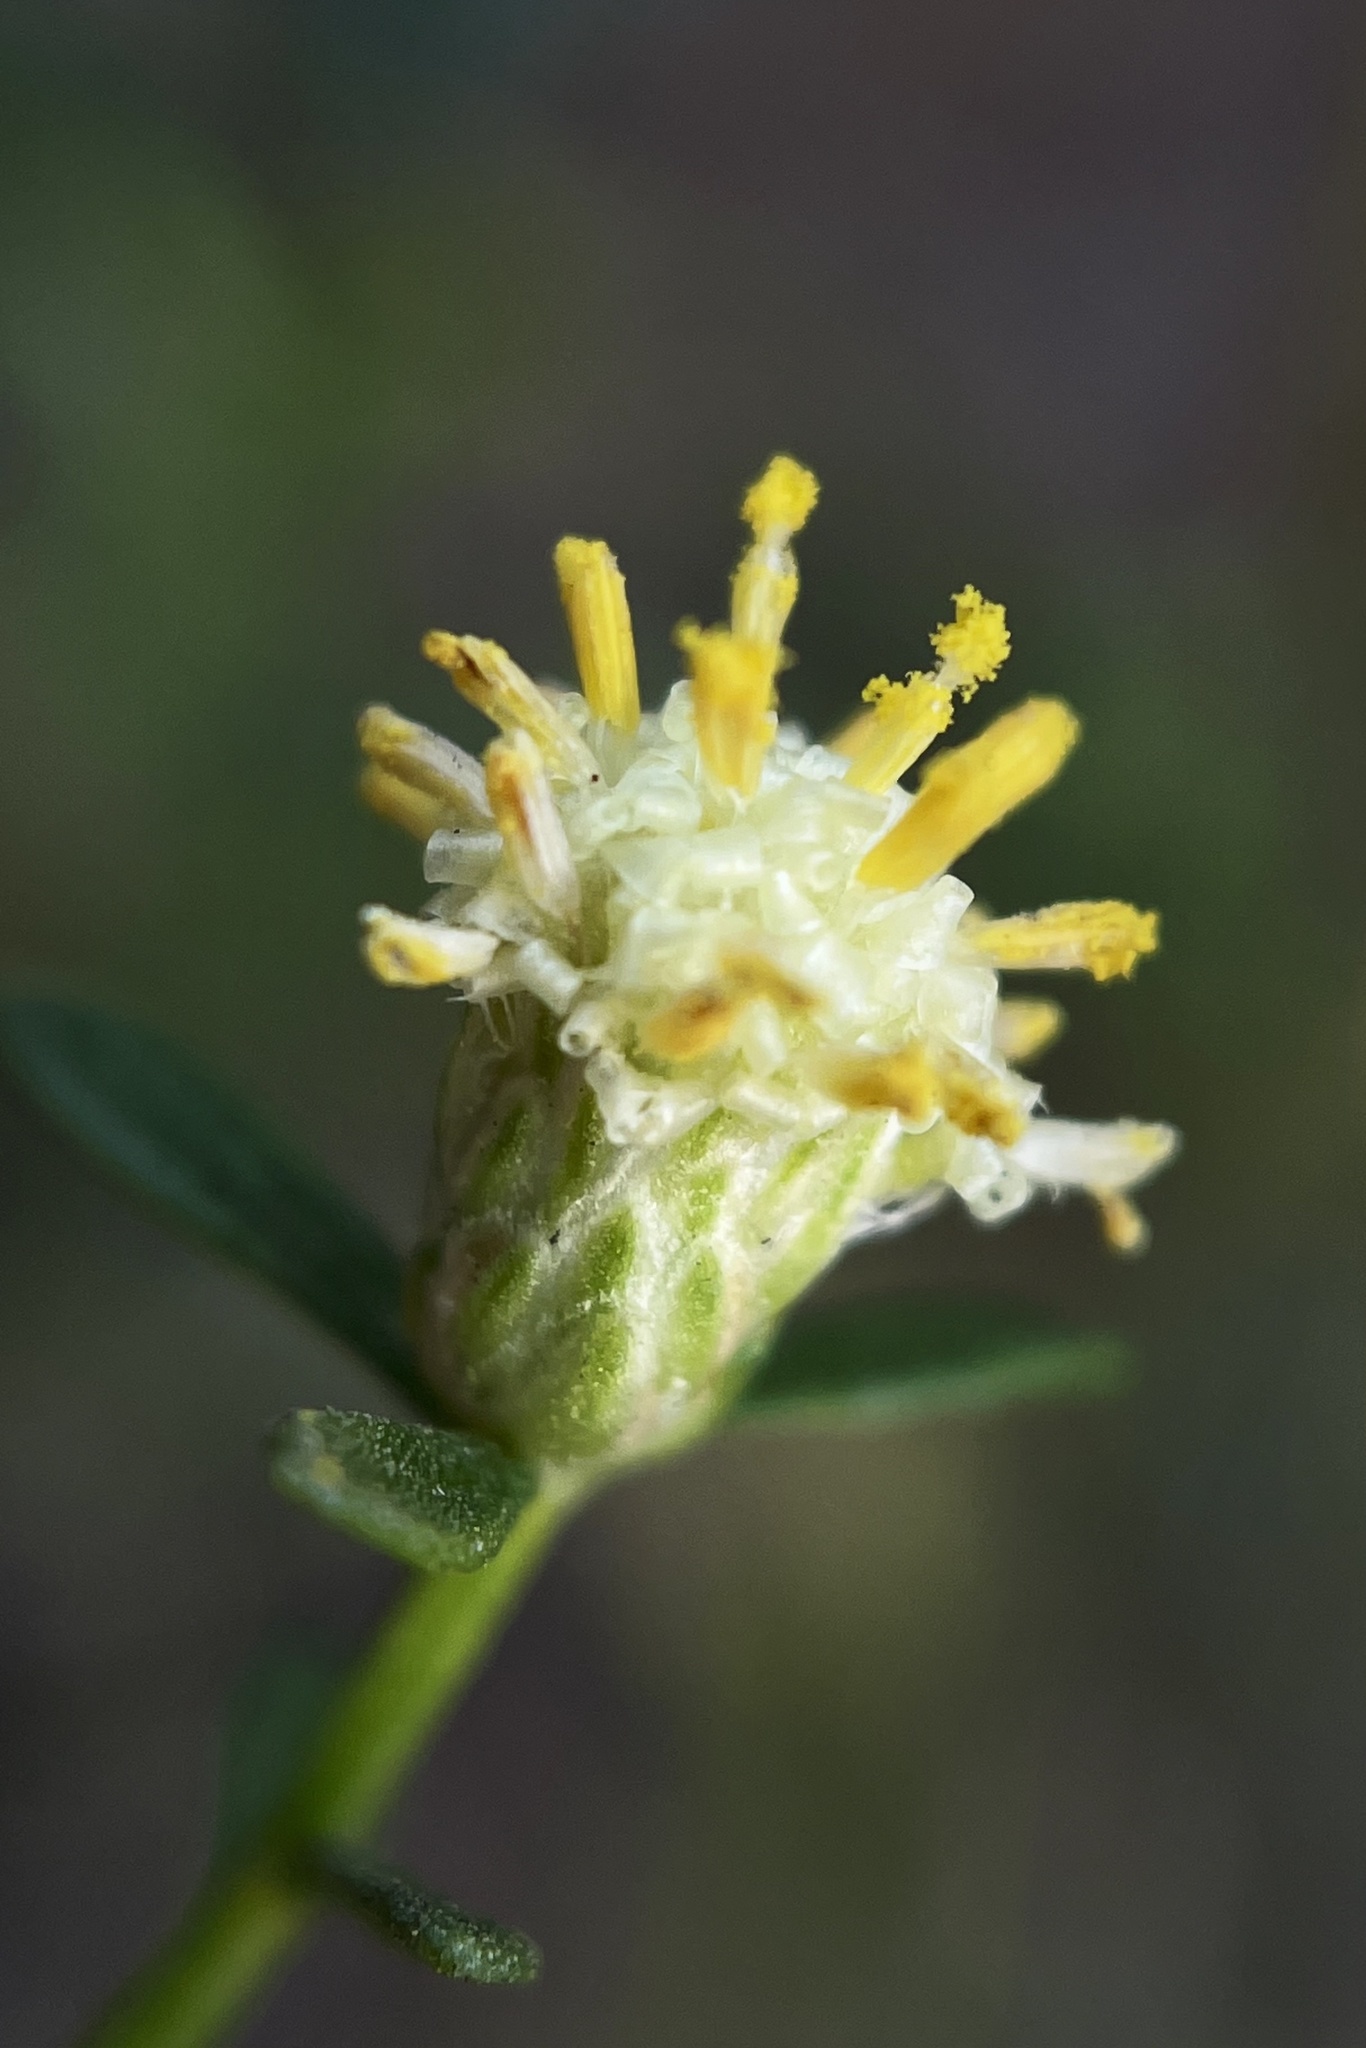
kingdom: Plantae
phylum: Tracheophyta
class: Magnoliopsida
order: Asterales
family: Asteraceae
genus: Baccharis
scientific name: Baccharis pilularis
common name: Coyotebrush
